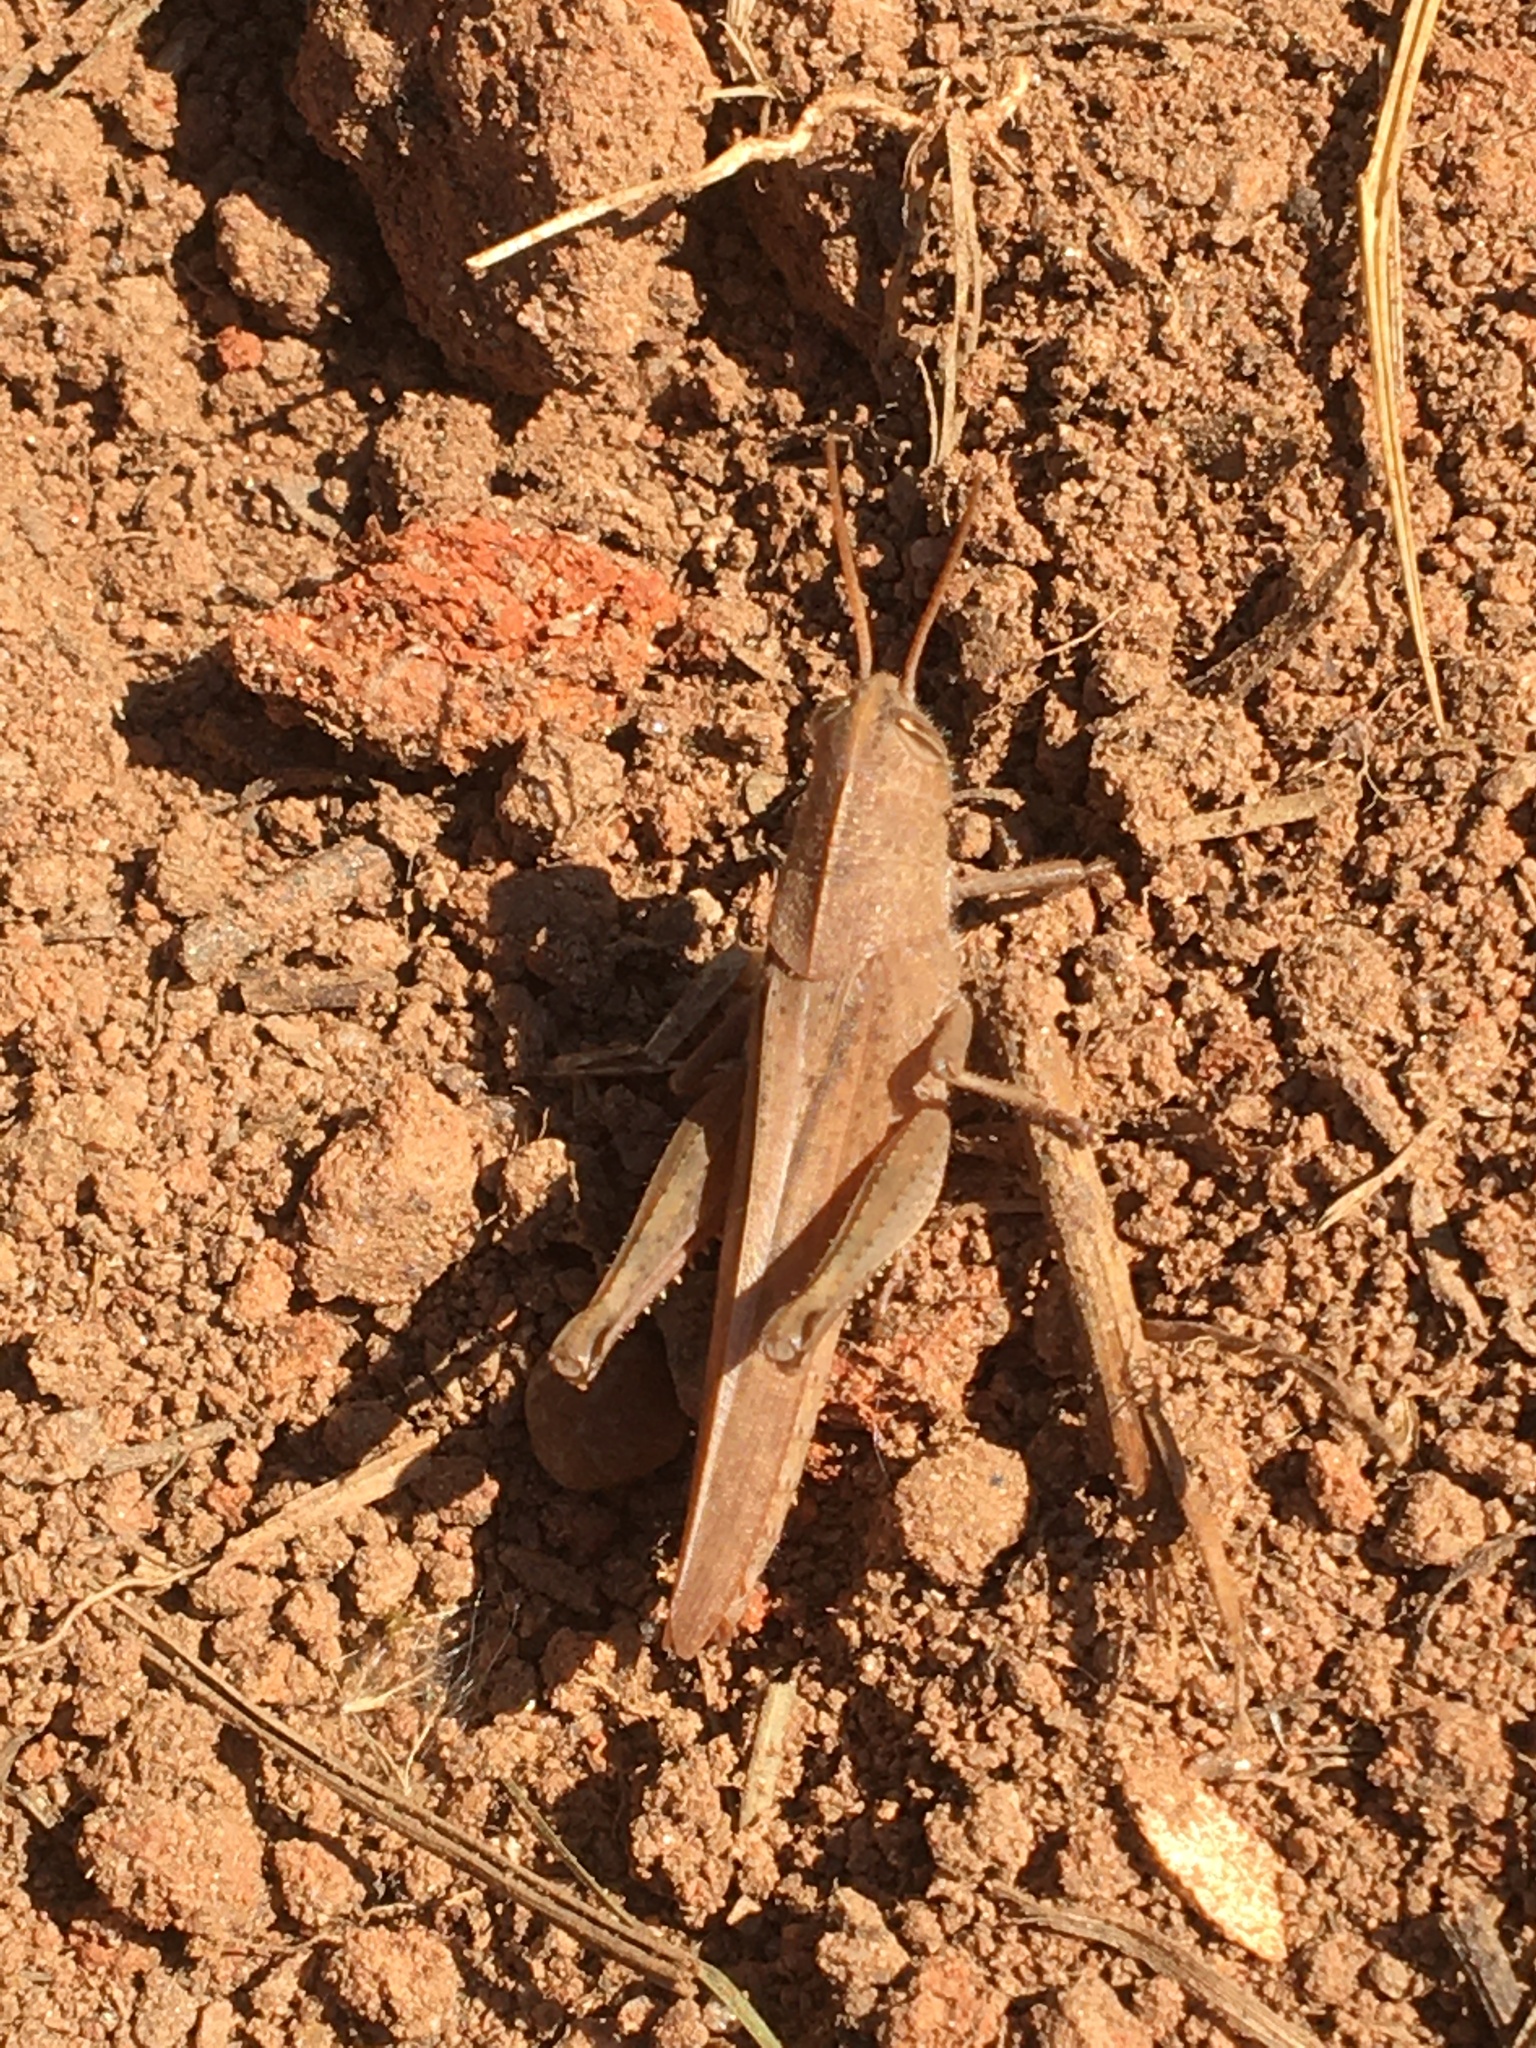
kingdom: Animalia
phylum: Arthropoda
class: Insecta
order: Orthoptera
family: Acrididae
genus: Schistocerca
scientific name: Schistocerca damnifica
